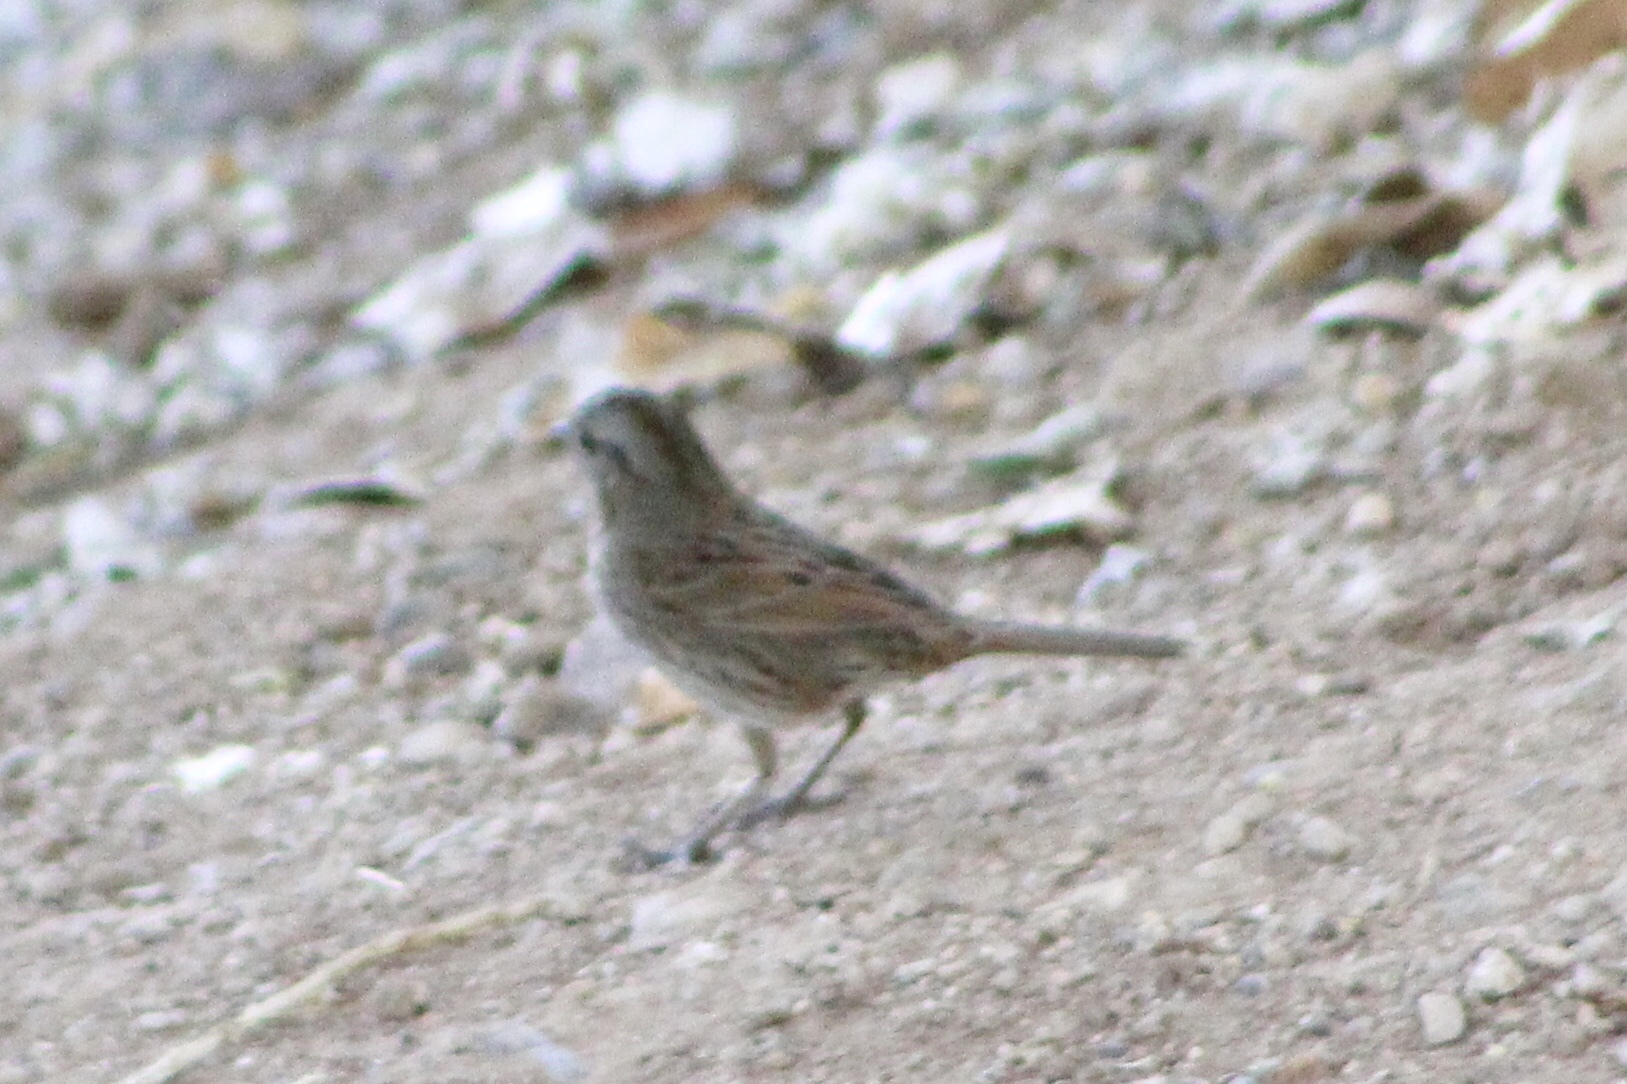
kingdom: Animalia
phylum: Chordata
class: Aves
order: Passeriformes
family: Passerellidae
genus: Melospiza
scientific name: Melospiza lincolnii
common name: Lincoln's sparrow
